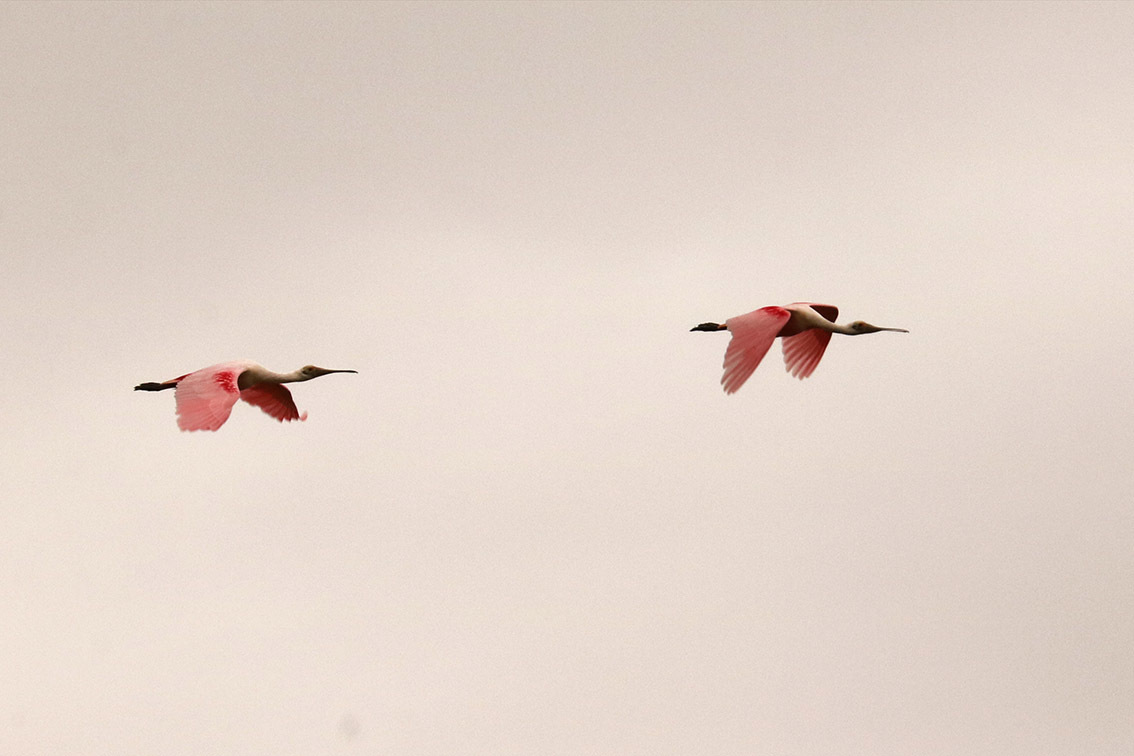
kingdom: Animalia
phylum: Chordata
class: Aves
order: Pelecaniformes
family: Threskiornithidae
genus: Platalea
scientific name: Platalea ajaja
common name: Roseate spoonbill
